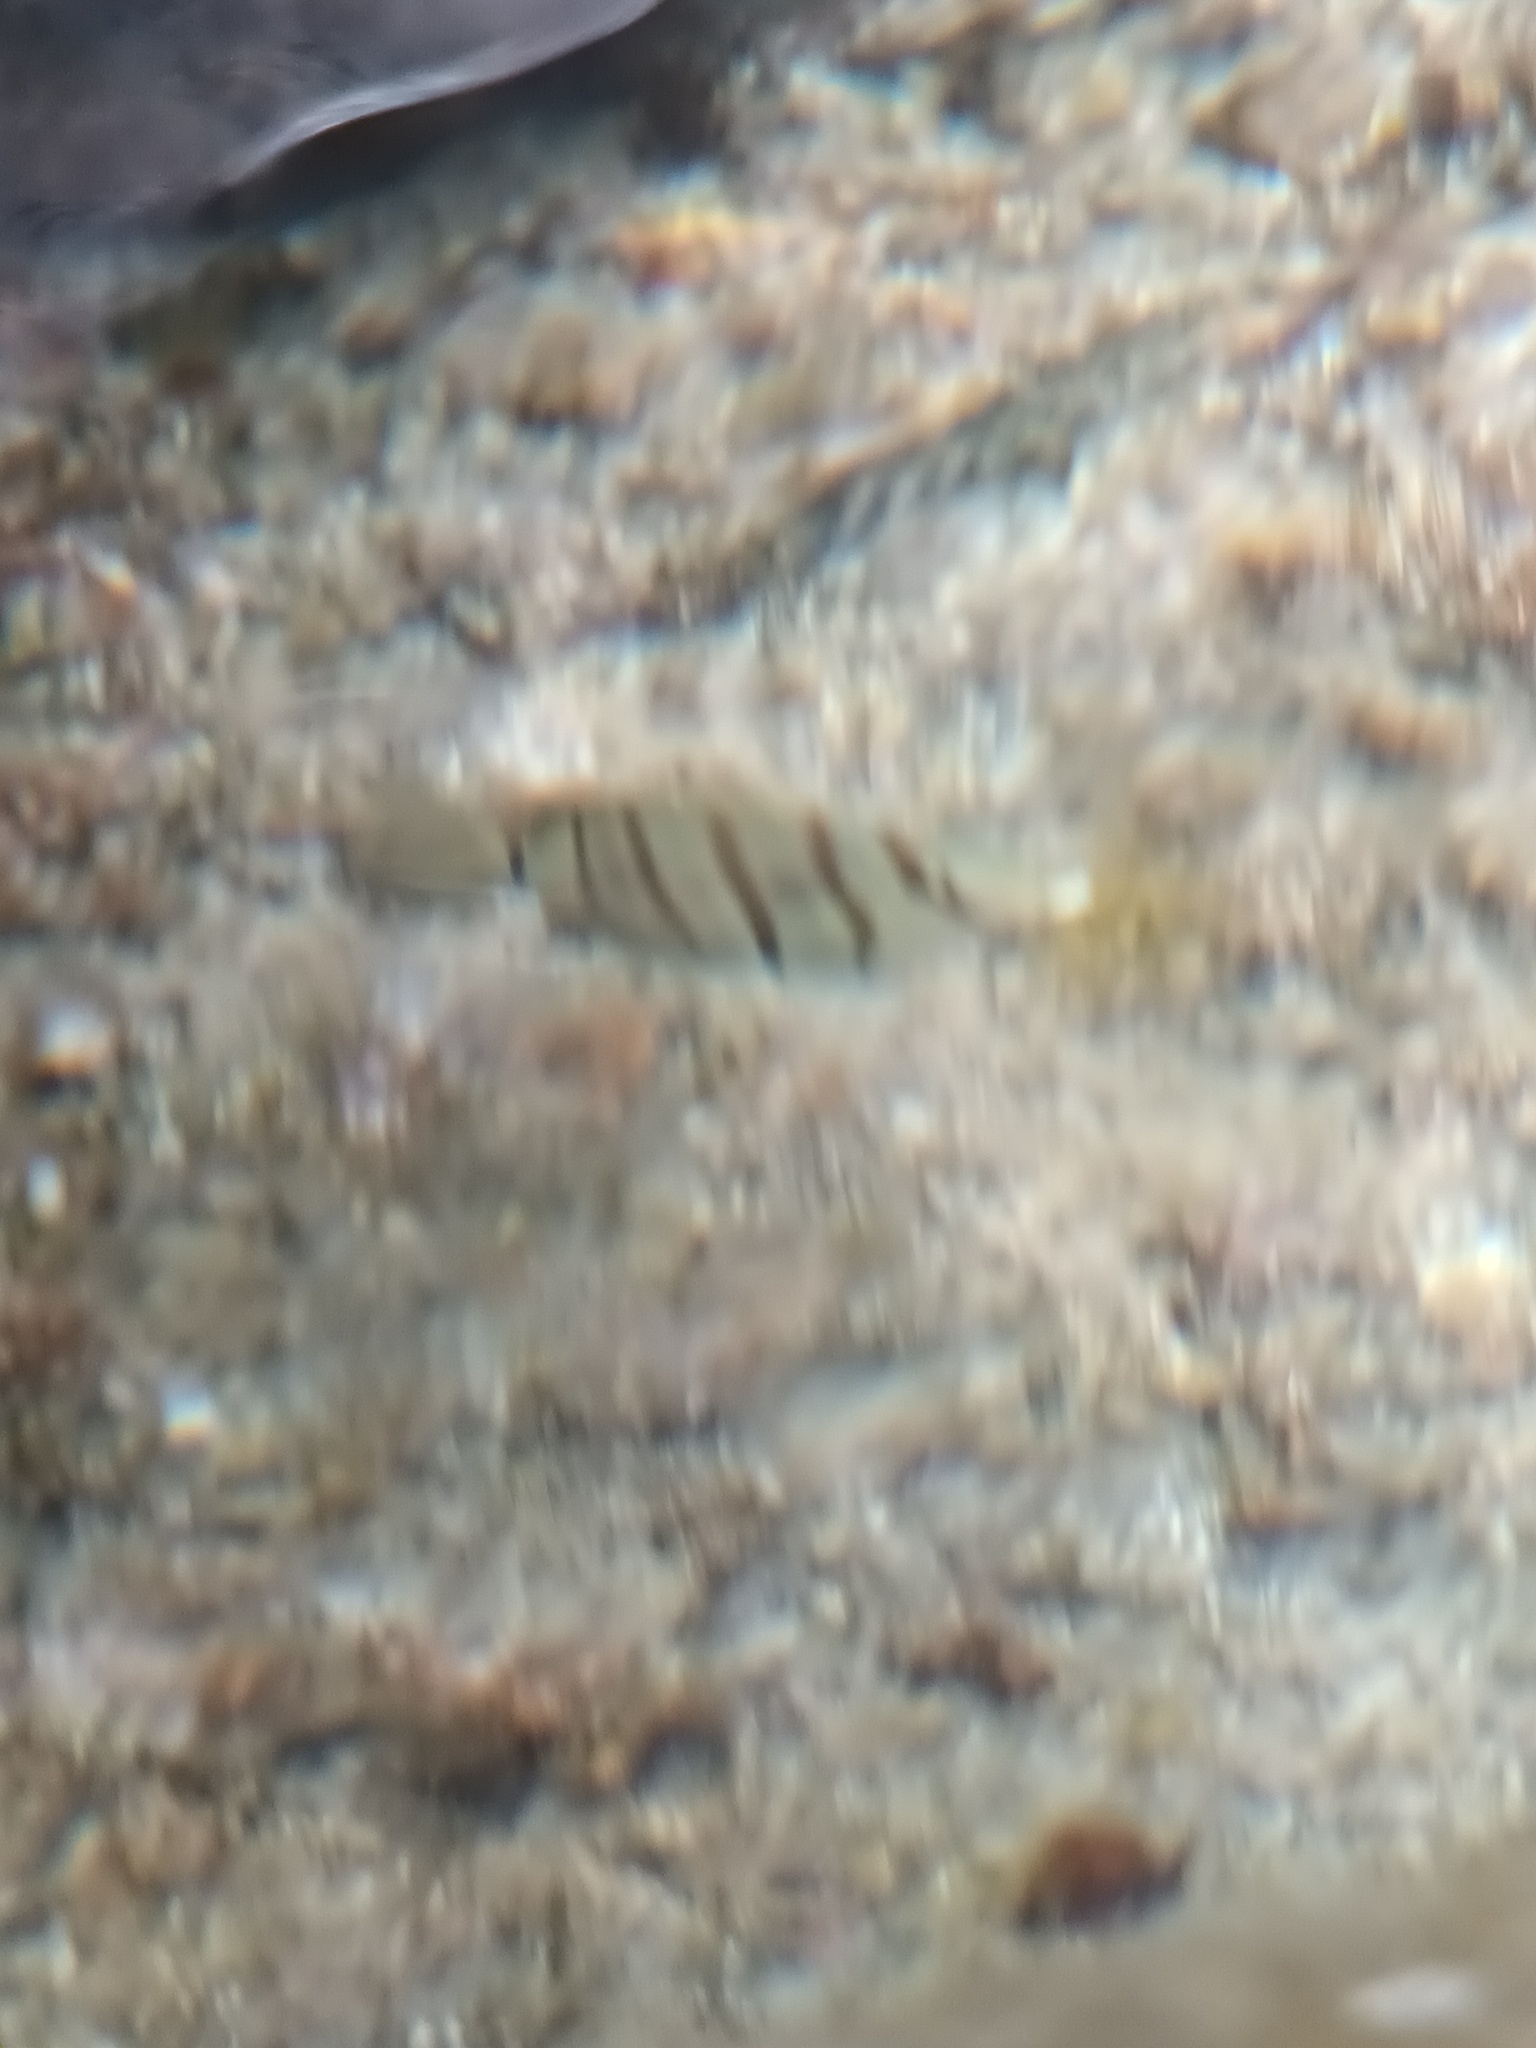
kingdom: Animalia
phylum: Chordata
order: Perciformes
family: Acanthuridae
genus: Acanthurus
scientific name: Acanthurus triostegus
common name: Convict surgeonfish
